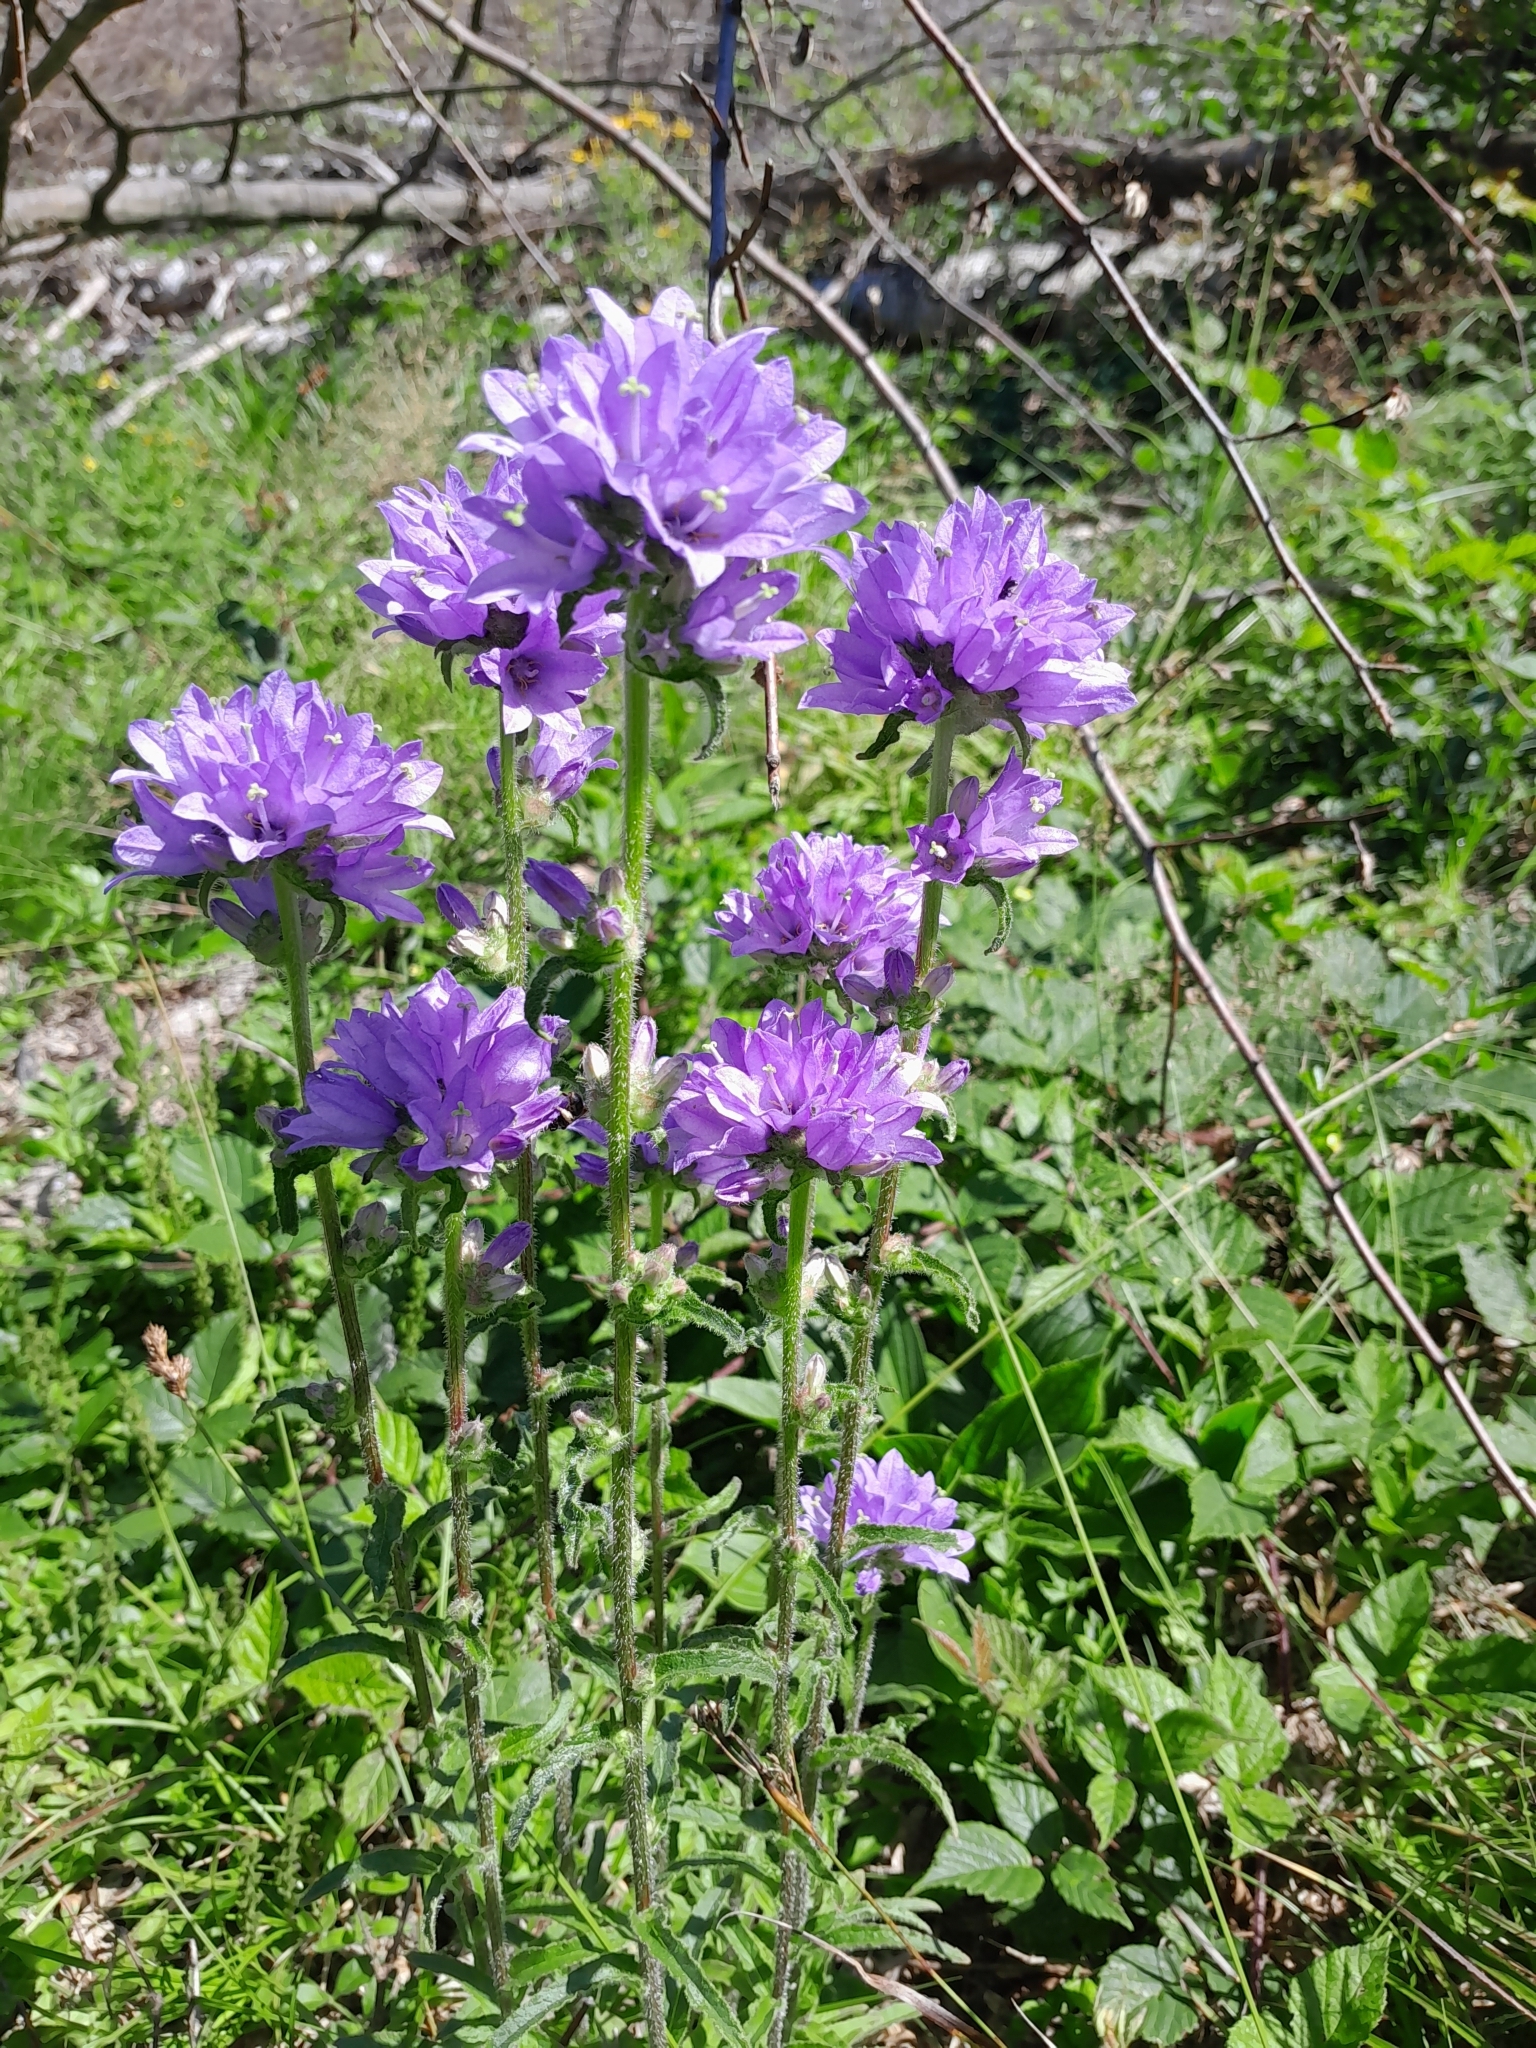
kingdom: Plantae
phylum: Tracheophyta
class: Magnoliopsida
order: Asterales
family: Campanulaceae
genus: Campanula
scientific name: Campanula cervicaria
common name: Bristly bellflower
